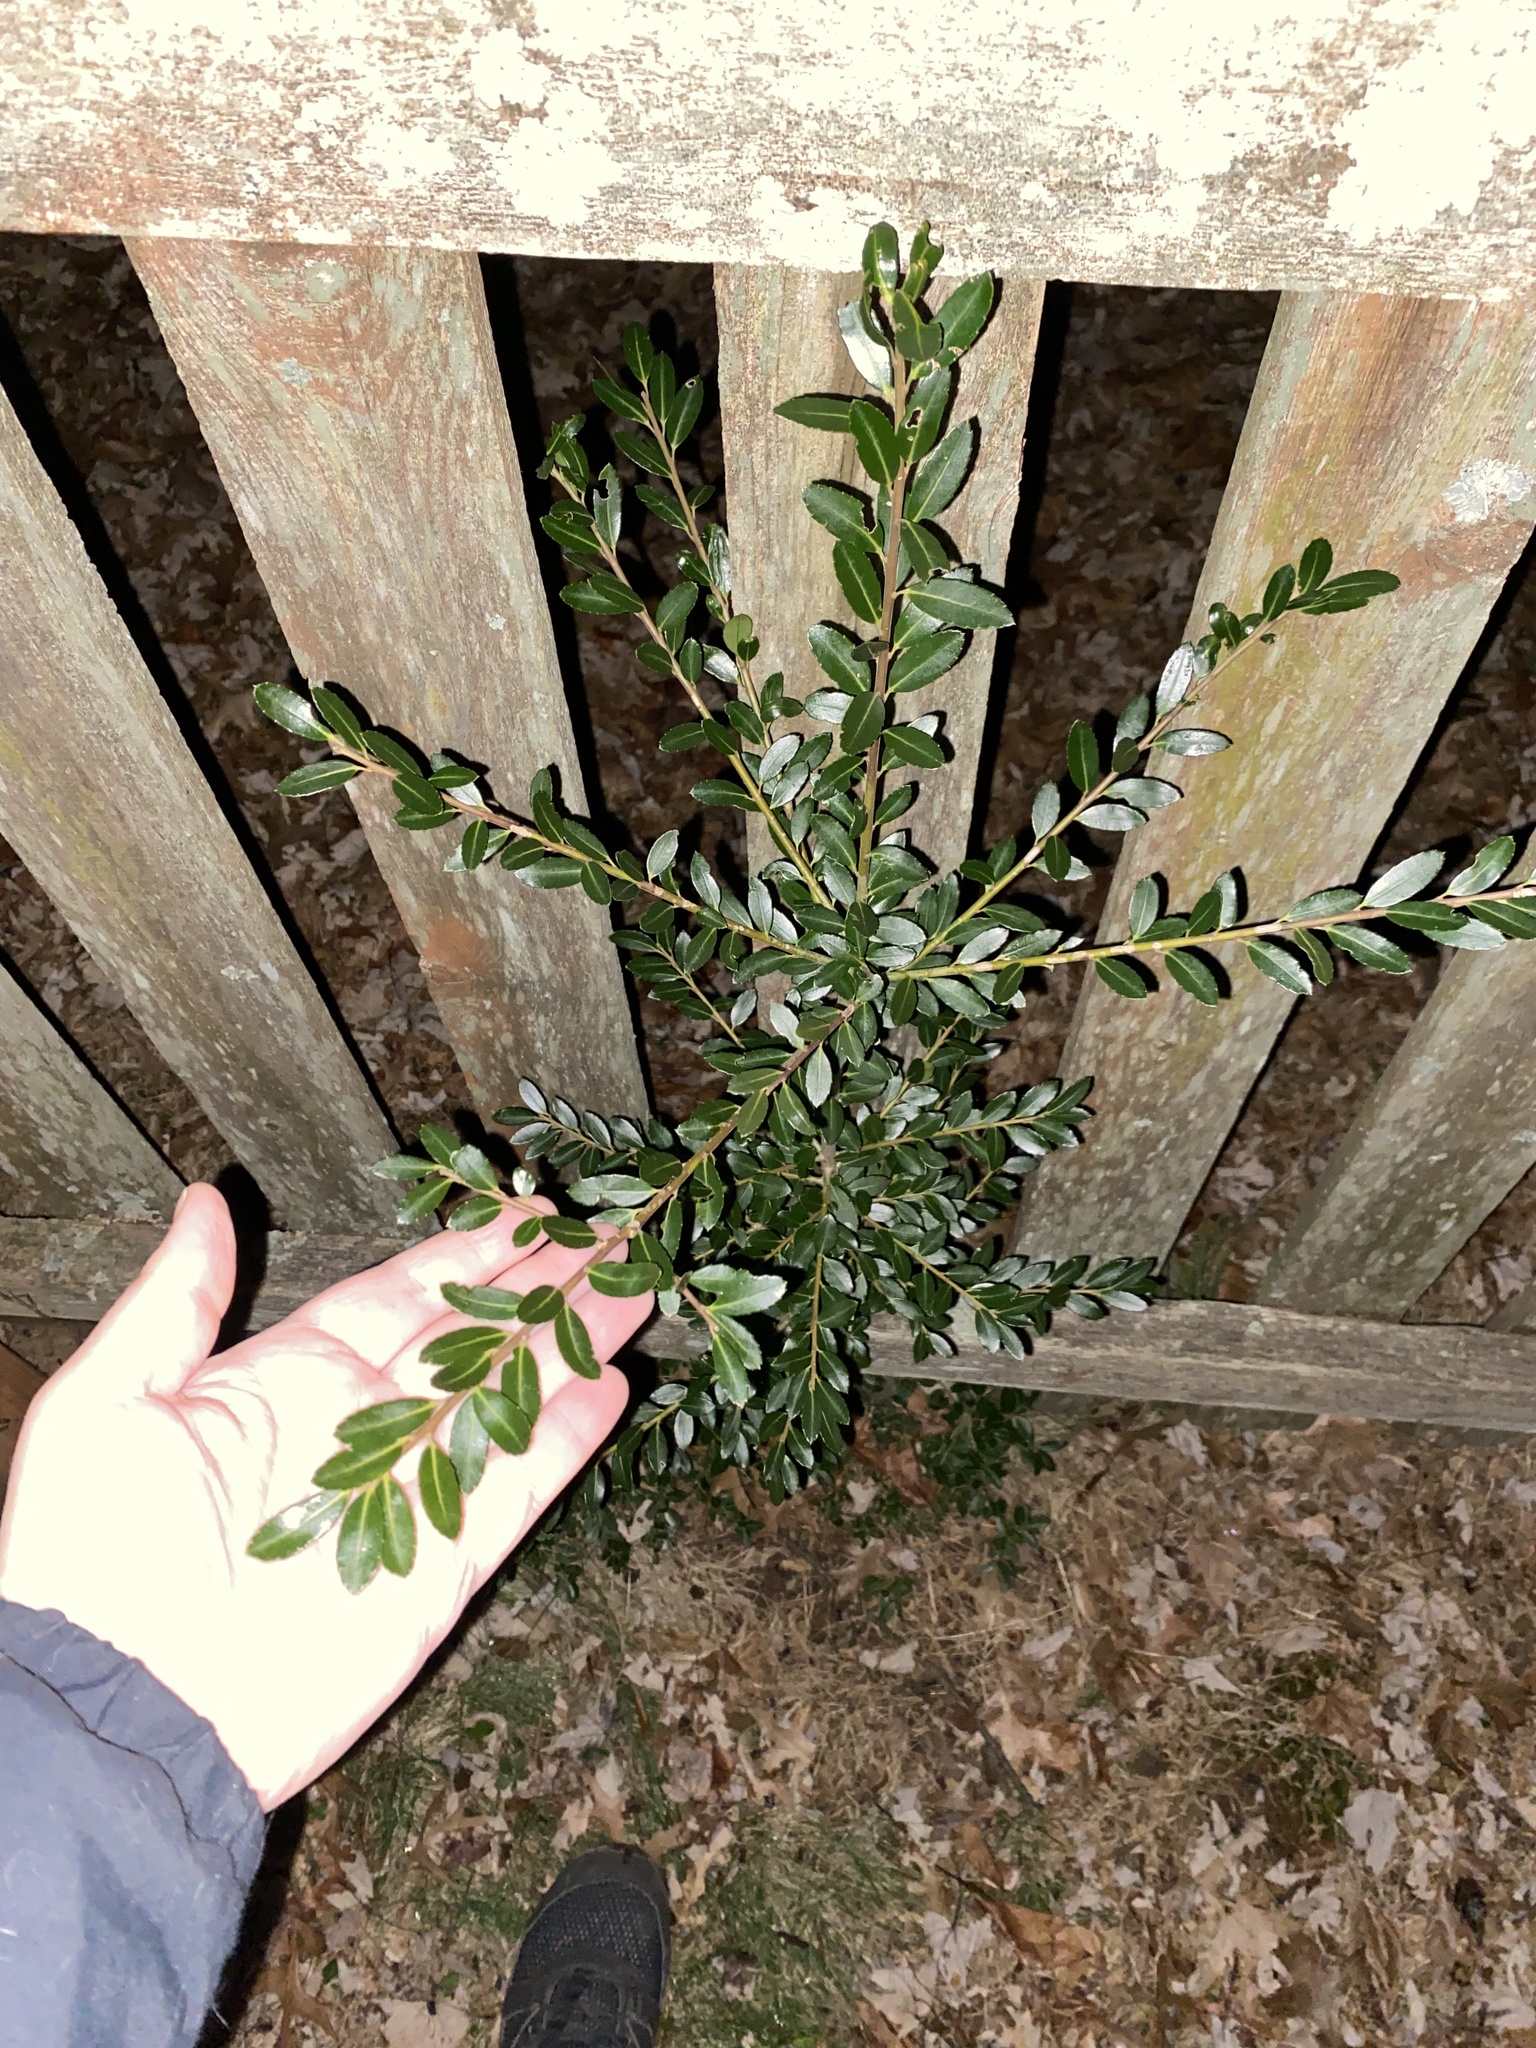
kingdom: Plantae
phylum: Tracheophyta
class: Magnoliopsida
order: Aquifoliales
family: Aquifoliaceae
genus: Ilex
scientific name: Ilex crenata
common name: Japanese holly
